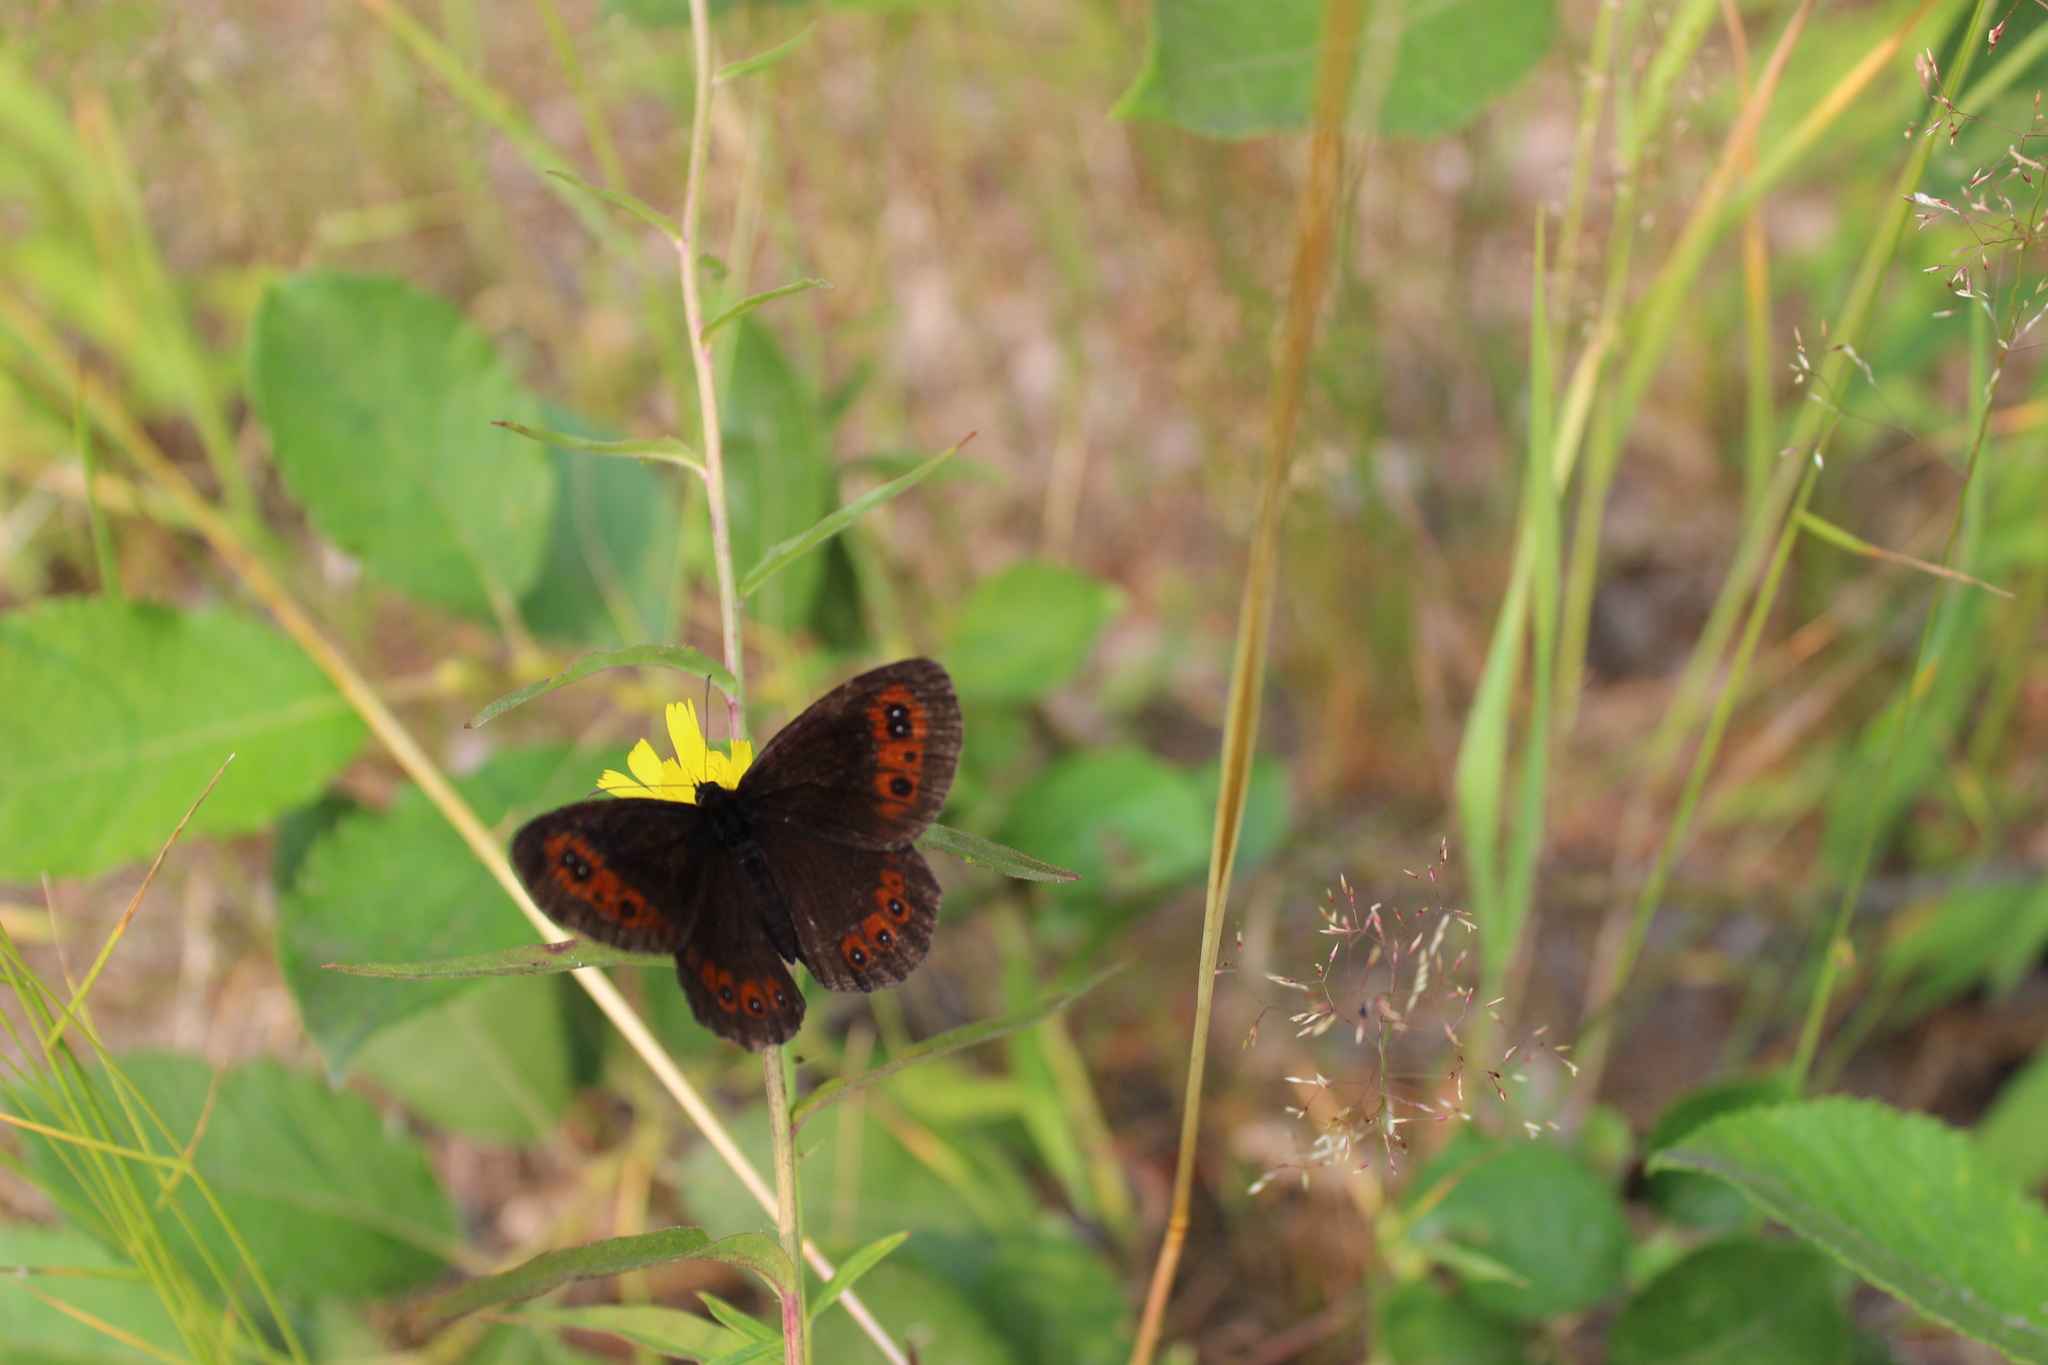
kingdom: Animalia
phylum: Arthropoda
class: Insecta
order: Lepidoptera
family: Nymphalidae
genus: Erebia
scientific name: Erebia aethiops
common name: Scotch argus
